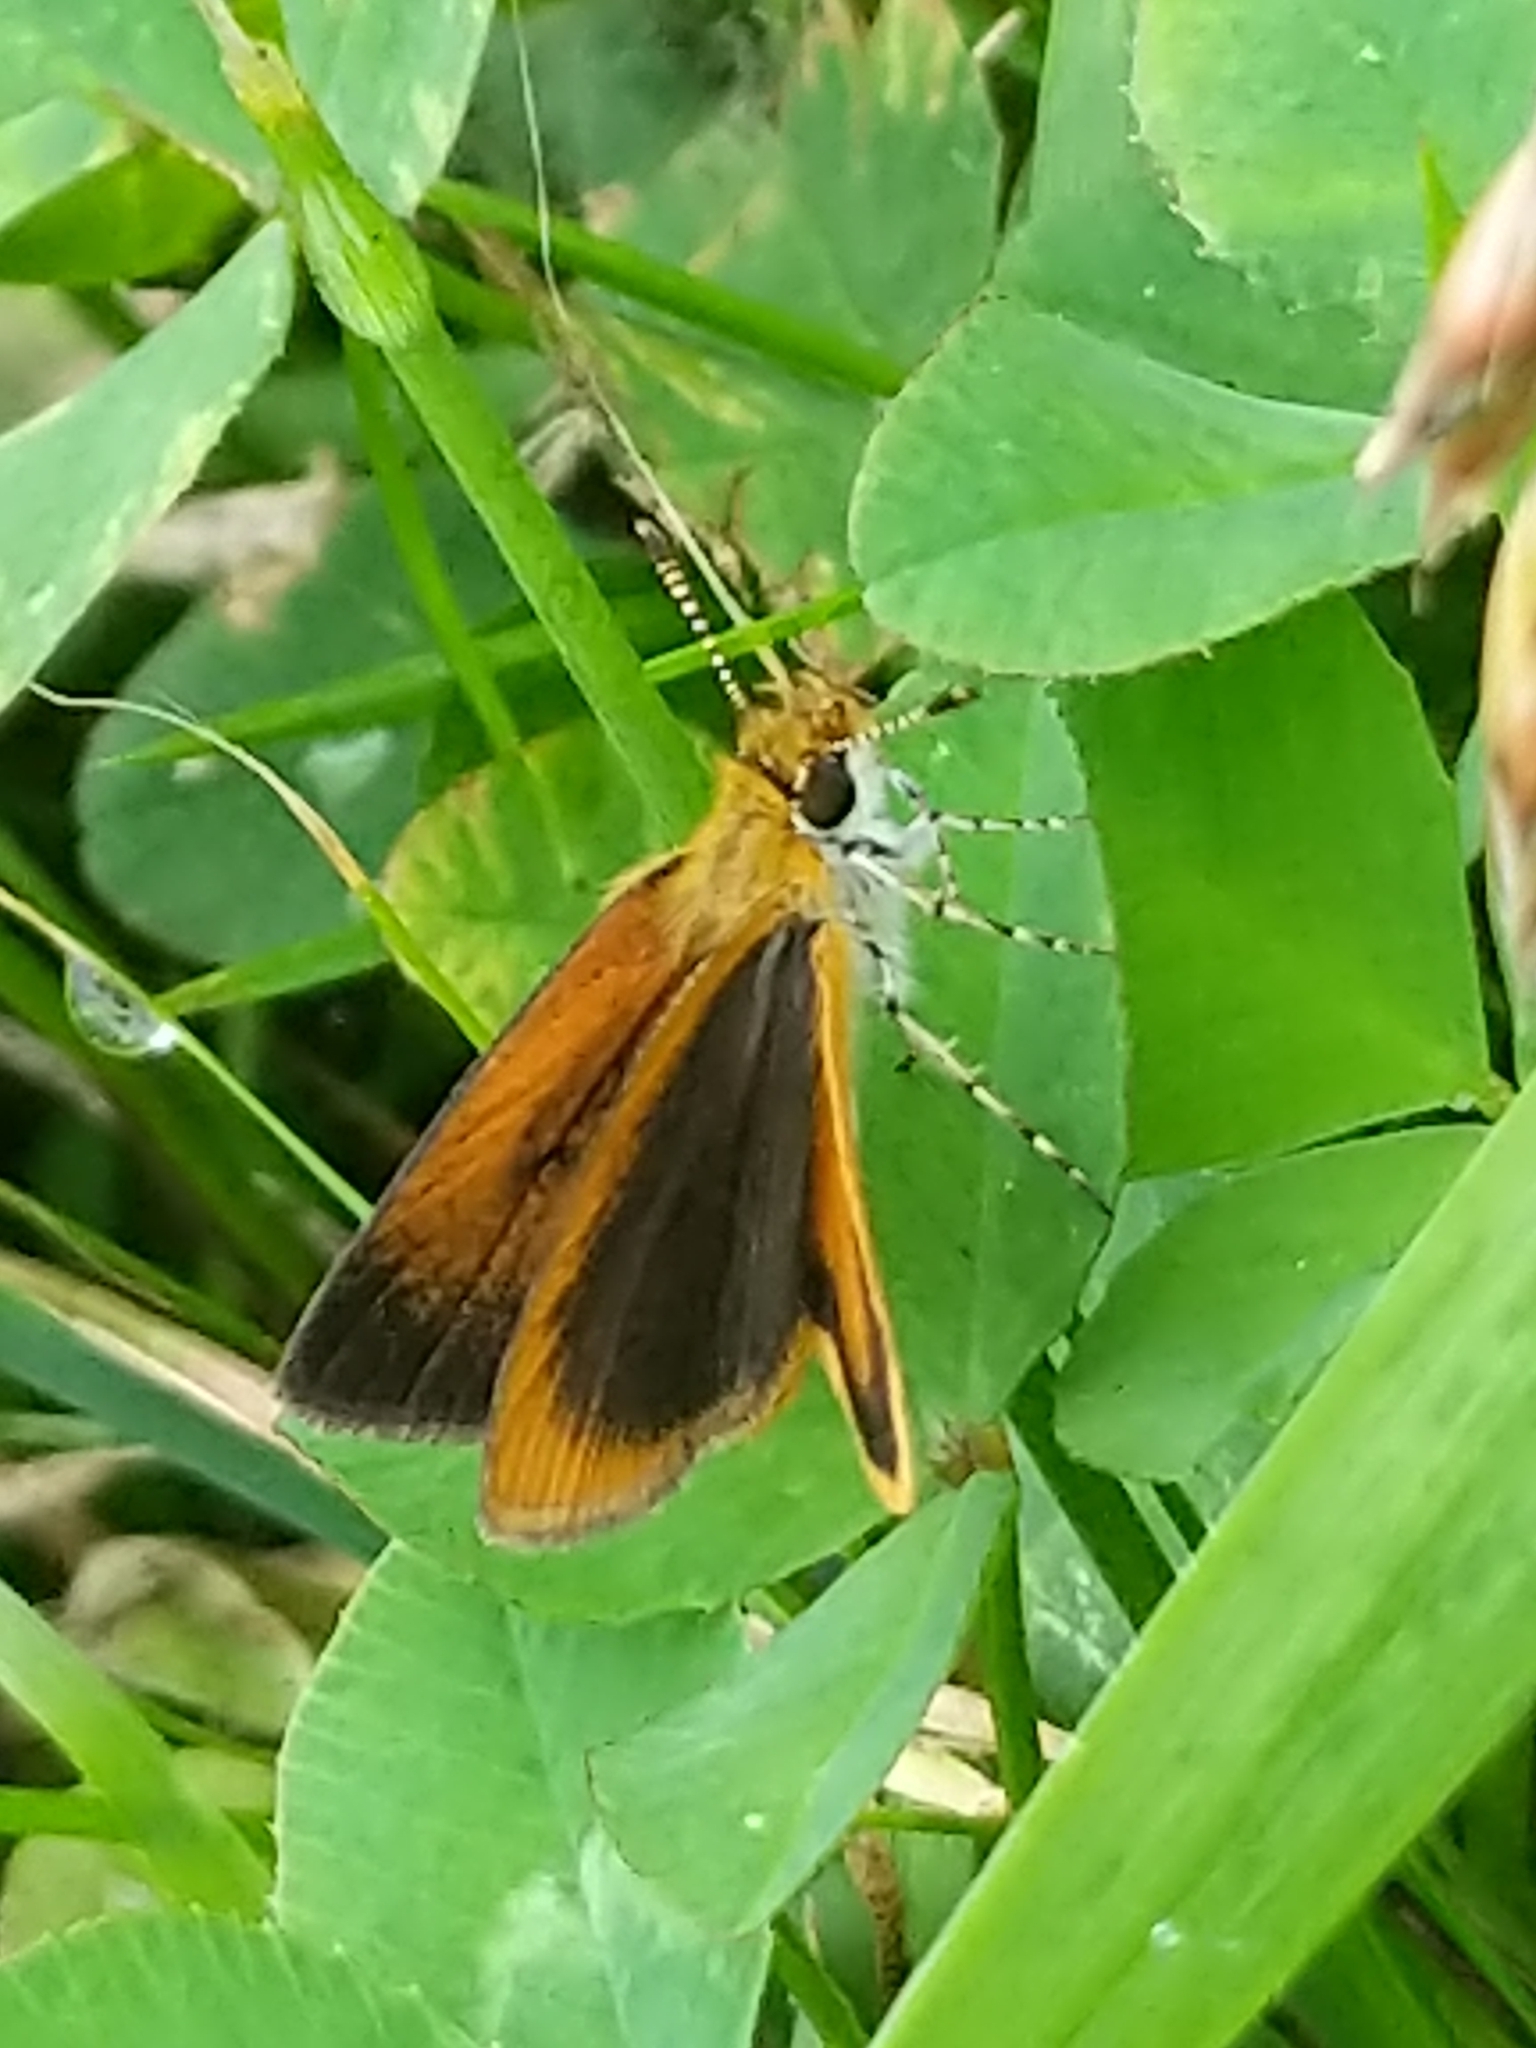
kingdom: Animalia
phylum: Arthropoda
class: Insecta
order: Lepidoptera
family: Hesperiidae
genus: Ancyloxypha
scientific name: Ancyloxypha numitor
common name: Least skipper
